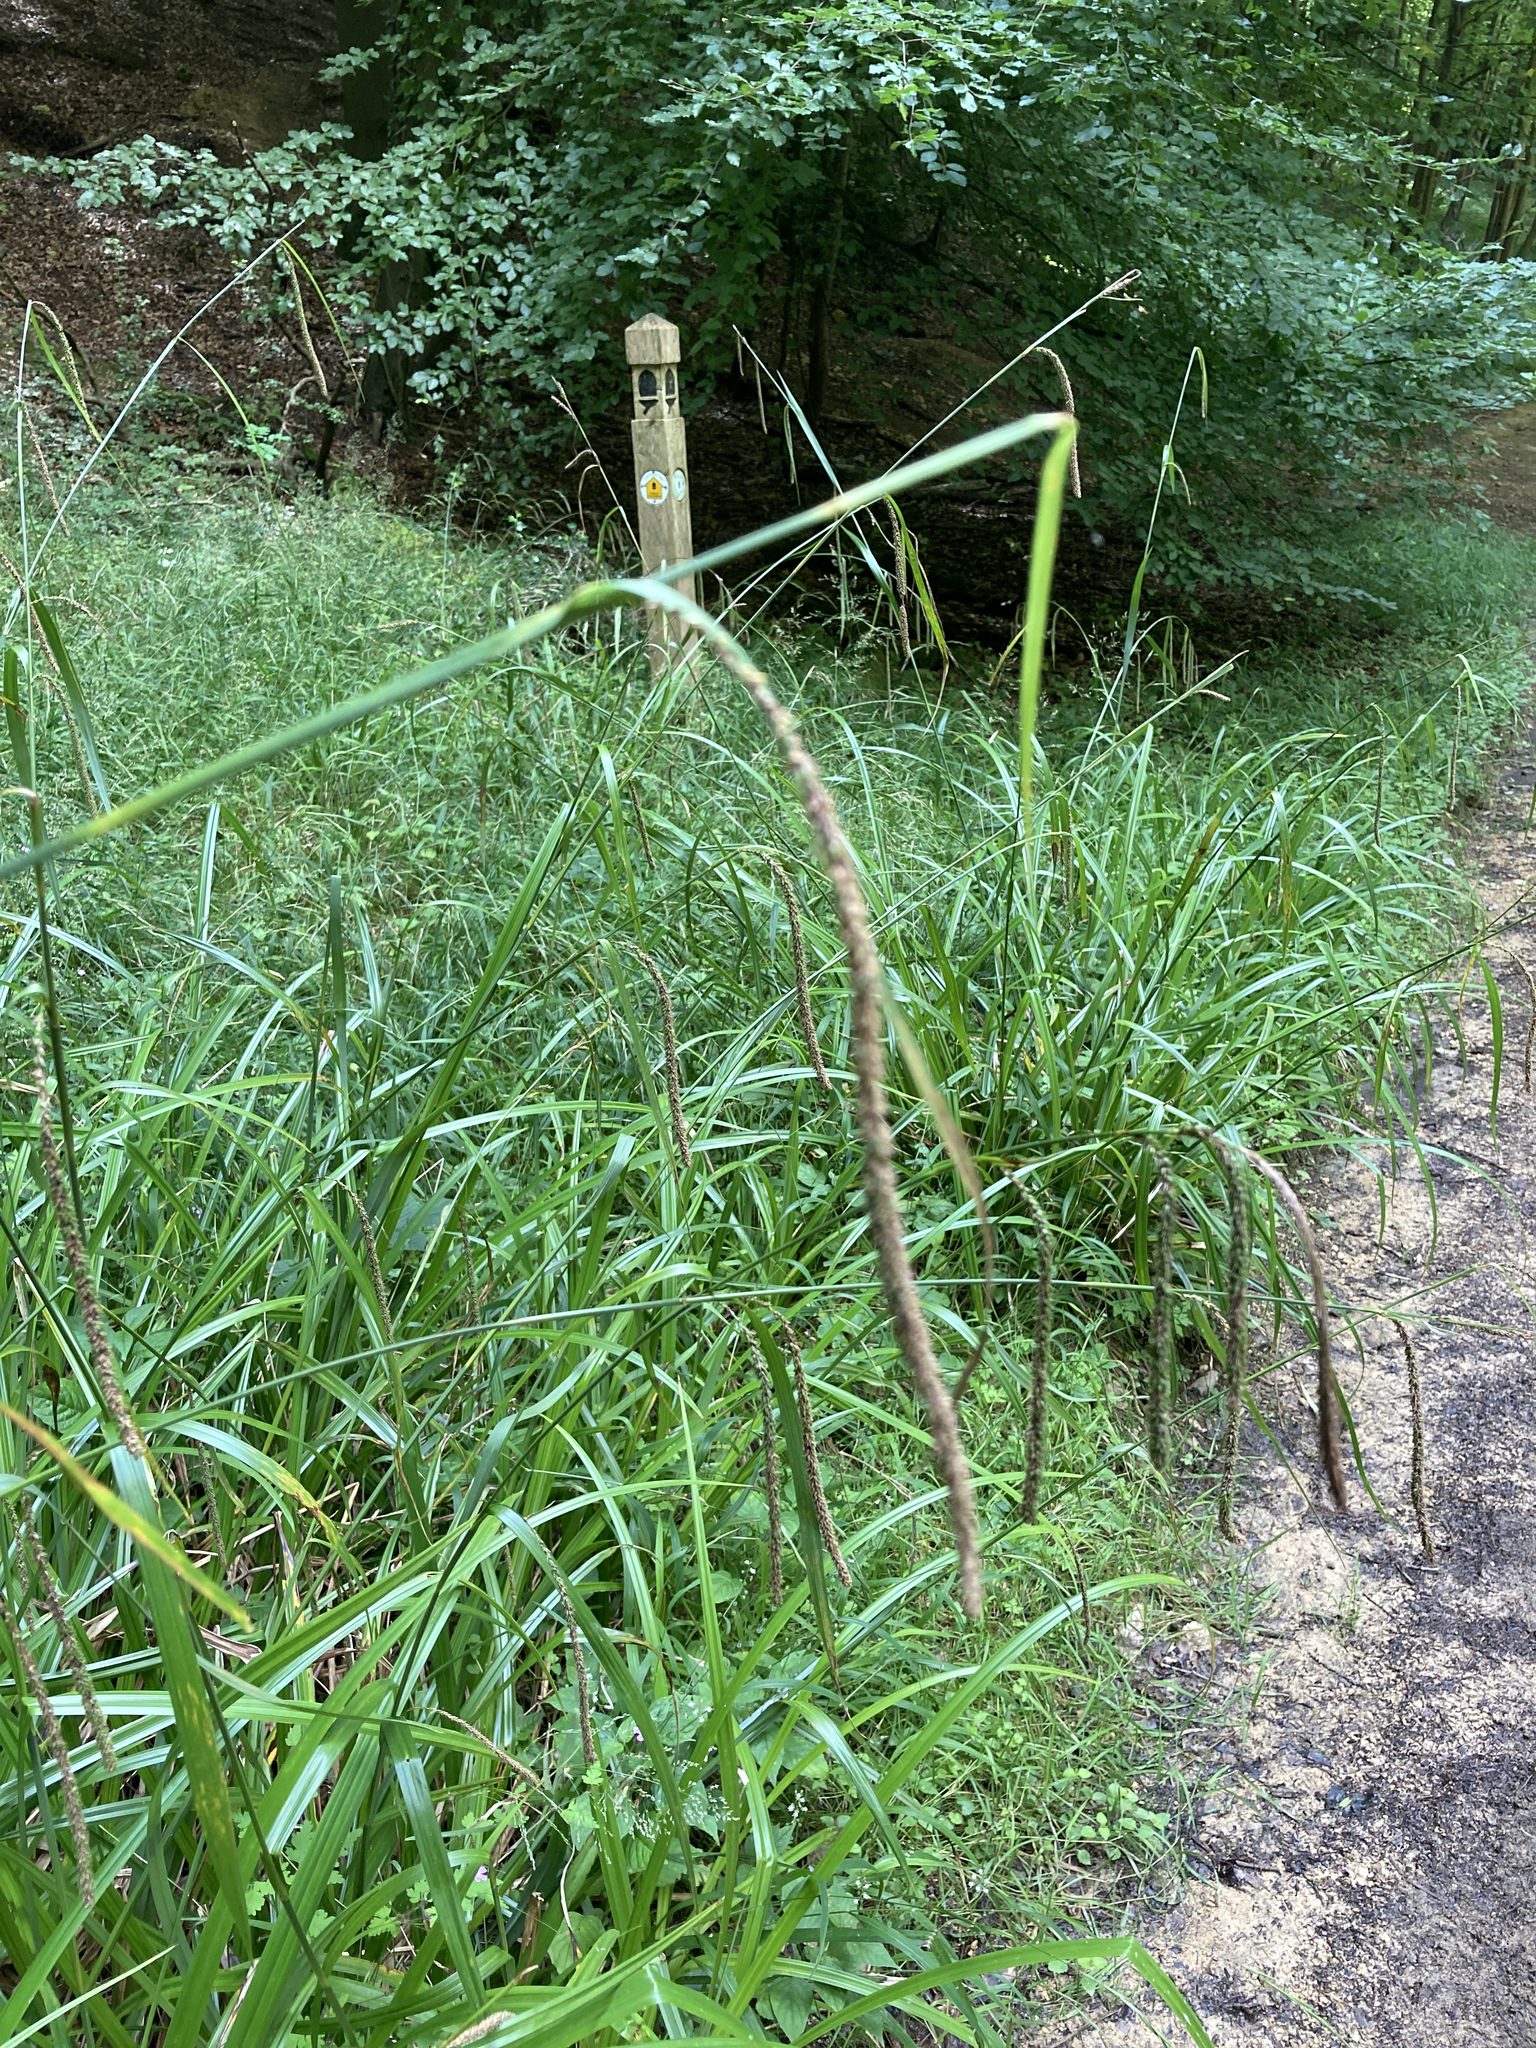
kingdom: Plantae
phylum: Tracheophyta
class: Liliopsida
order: Poales
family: Cyperaceae
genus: Carex
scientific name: Carex pendula
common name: Pendulous sedge
